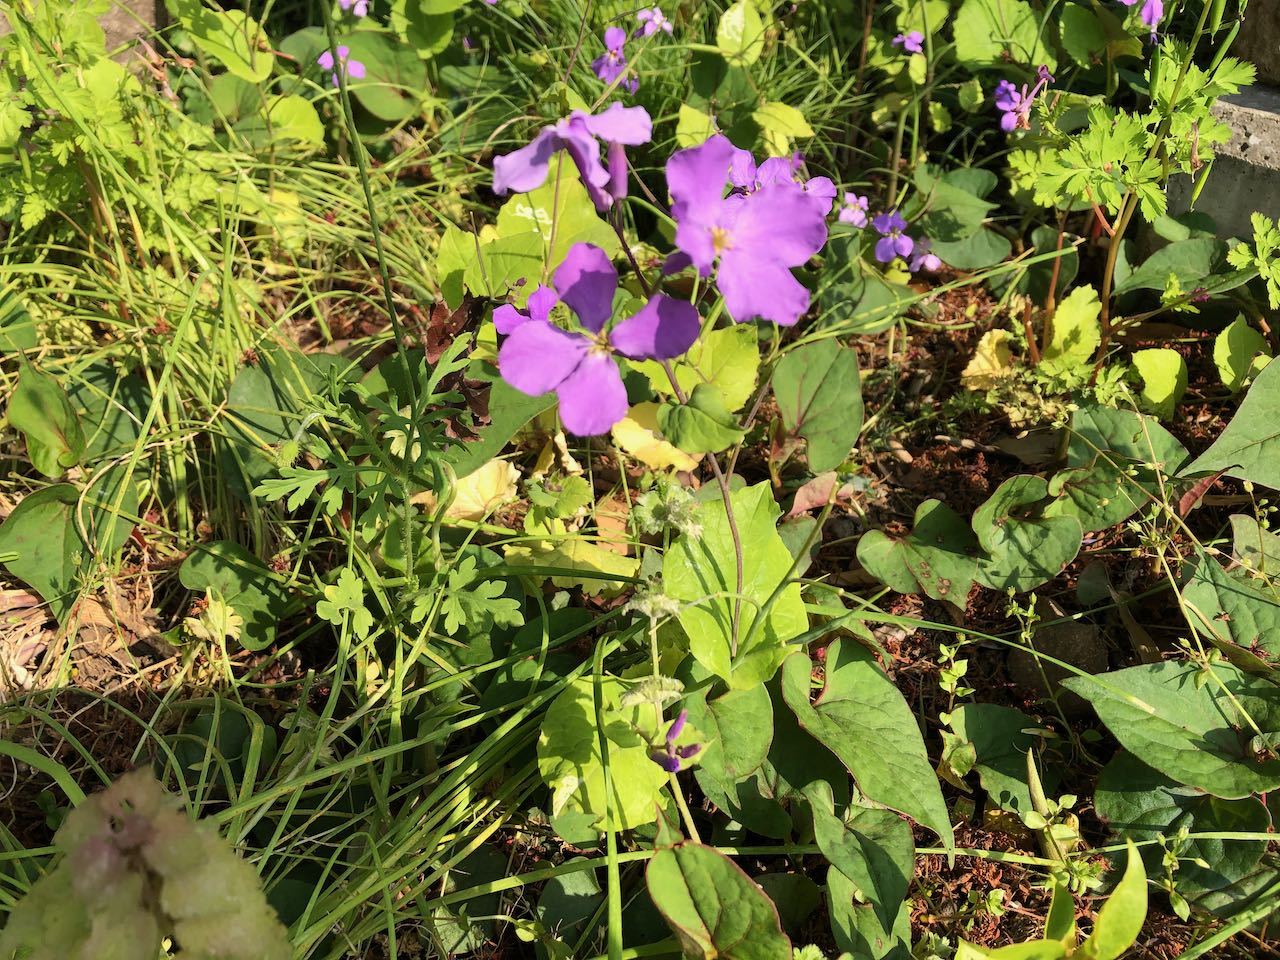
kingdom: Plantae
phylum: Tracheophyta
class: Magnoliopsida
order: Brassicales
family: Brassicaceae
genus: Orychophragmus
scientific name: Orychophragmus violaceus
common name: Mustard
